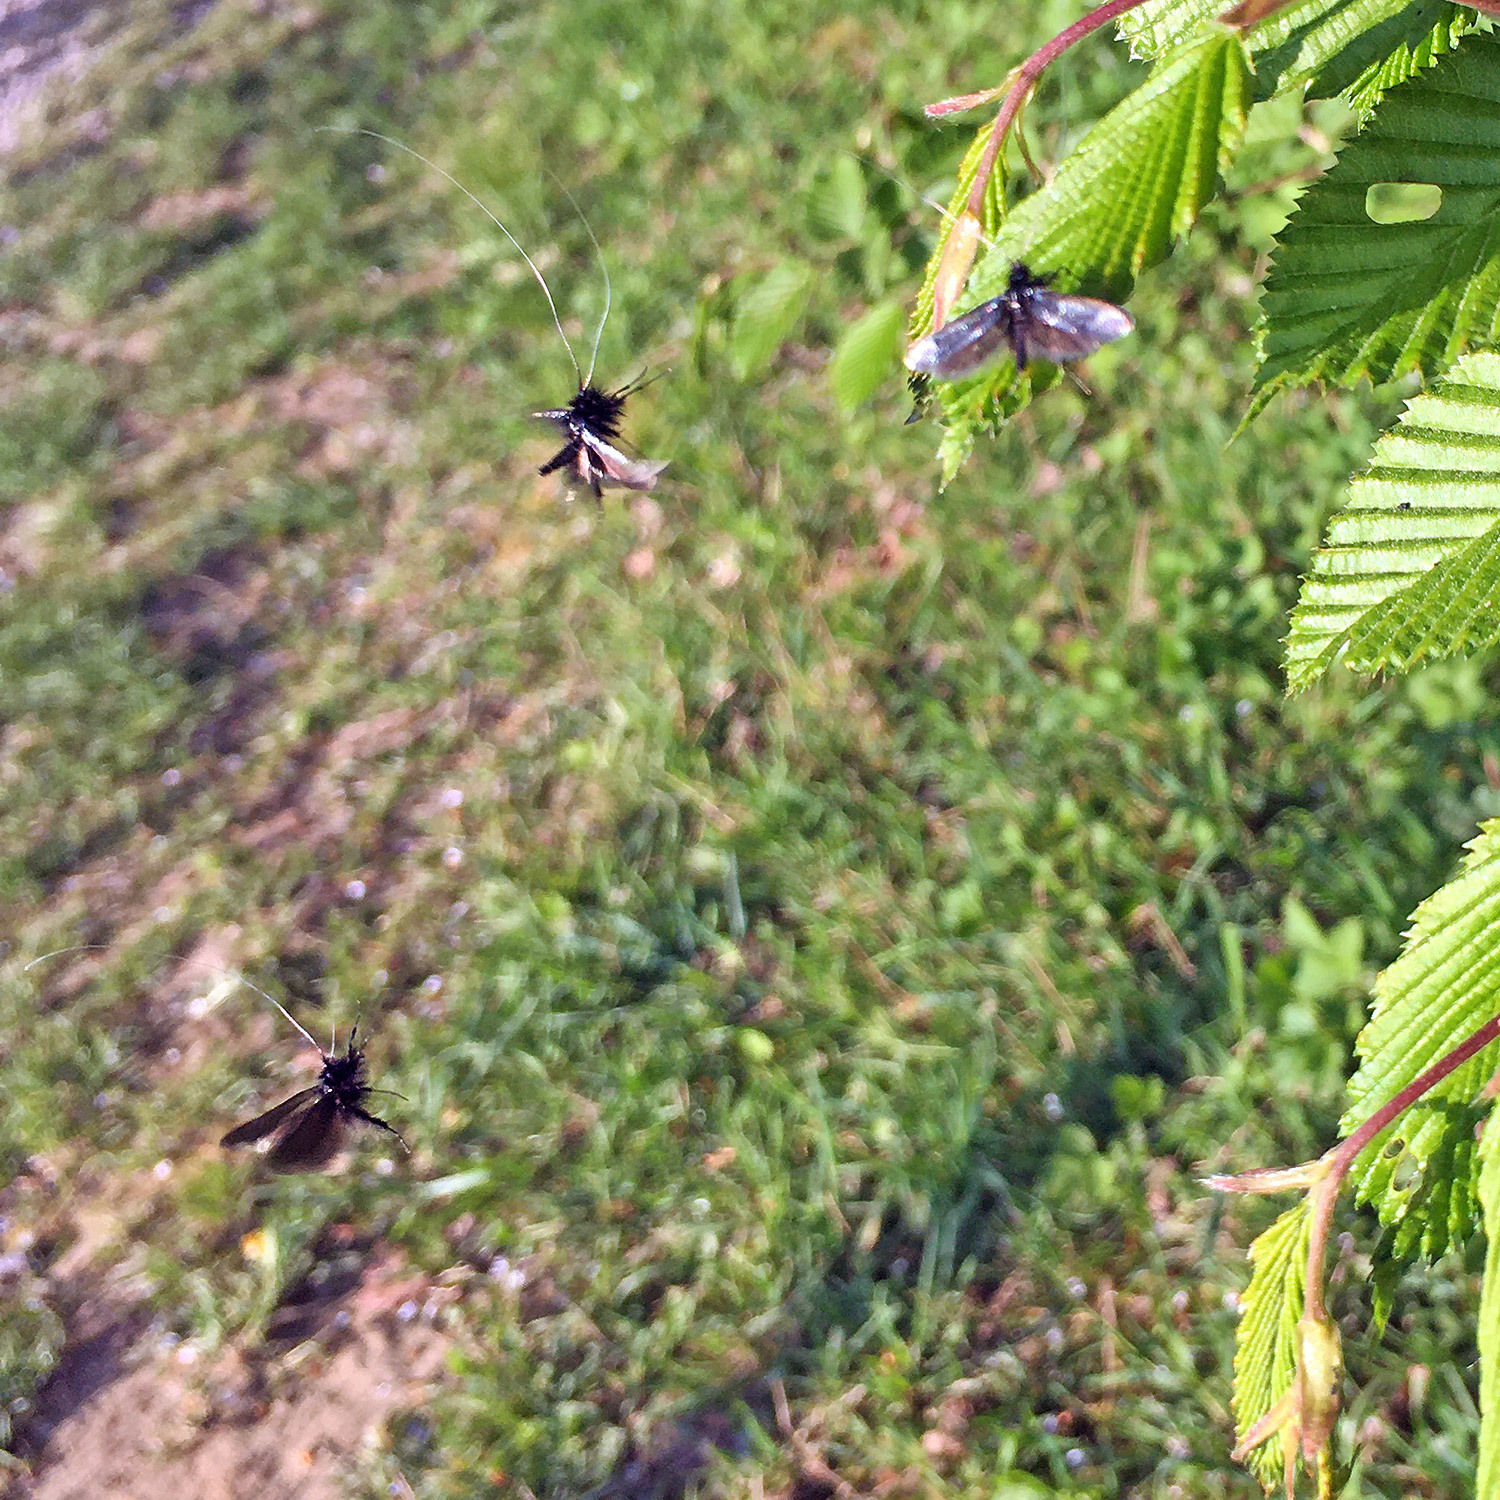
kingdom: Animalia
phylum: Arthropoda
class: Insecta
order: Lepidoptera
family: Adelidae
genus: Adela
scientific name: Adela viridella
